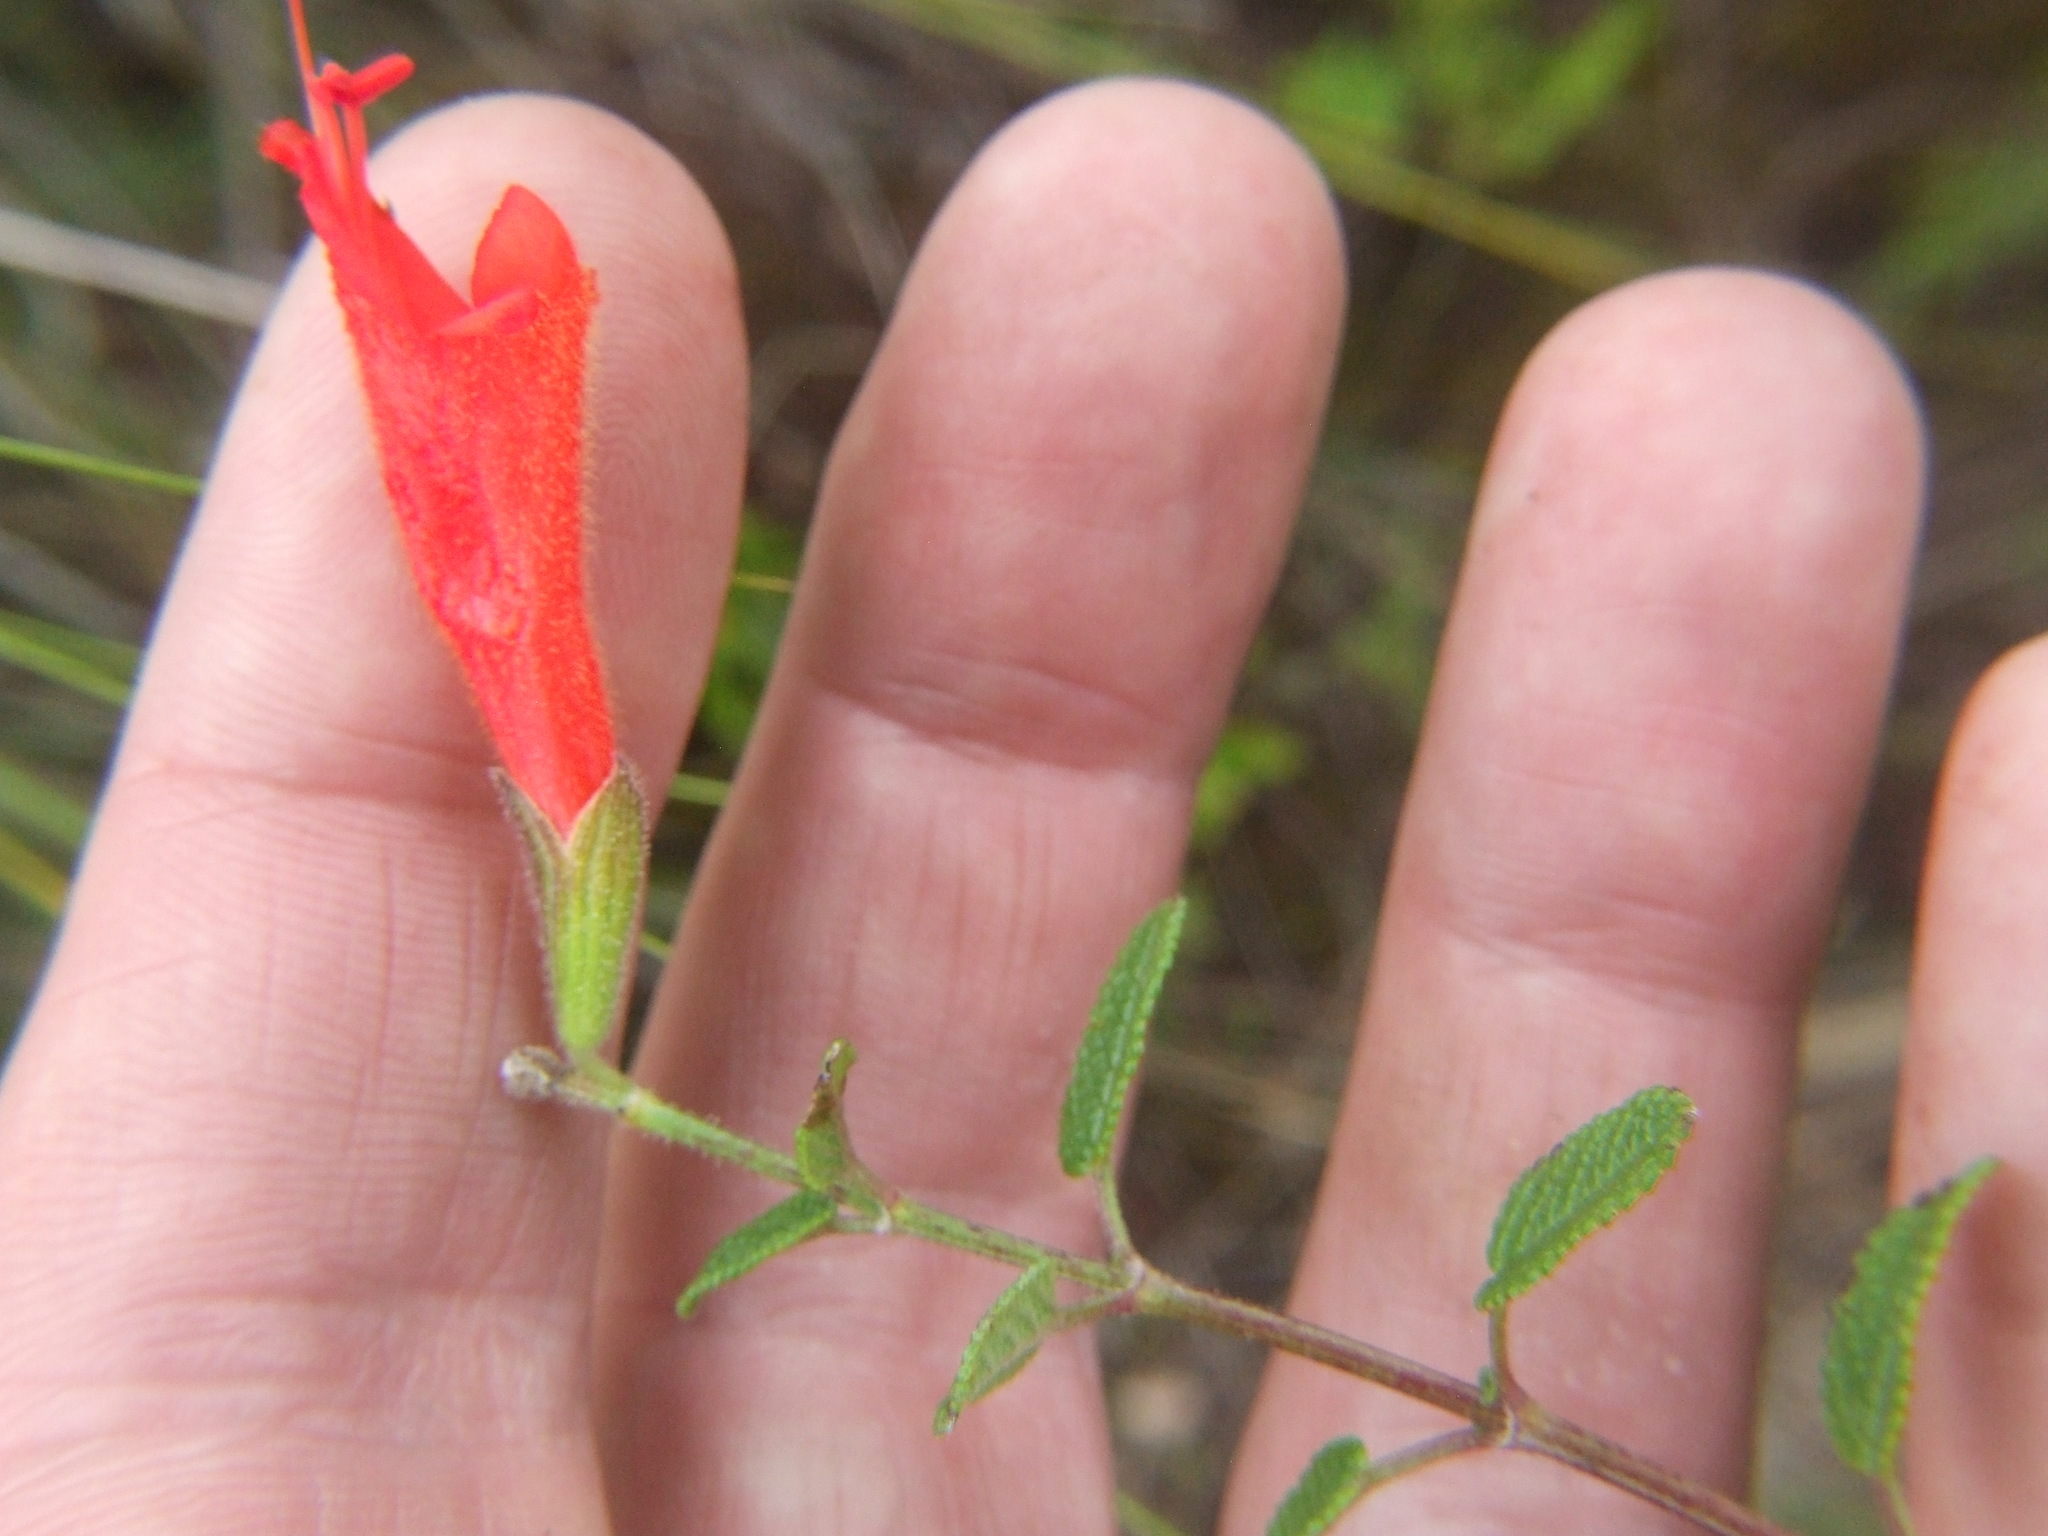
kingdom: Plantae
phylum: Tracheophyta
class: Magnoliopsida
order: Lamiales
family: Lamiaceae
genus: Salvia
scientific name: Salvia oppositiflora
